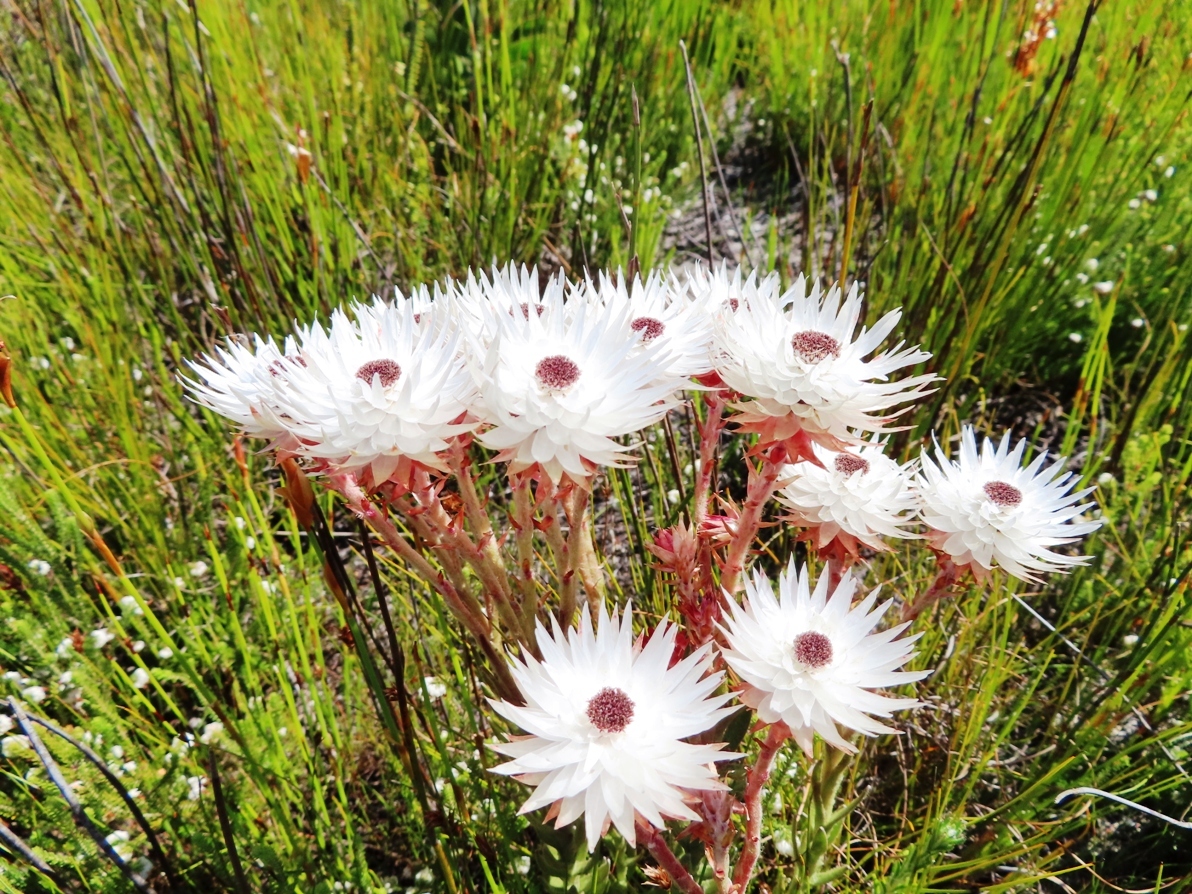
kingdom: Plantae
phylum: Tracheophyta
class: Magnoliopsida
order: Asterales
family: Asteraceae
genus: Syncarpha
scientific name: Syncarpha zeyheri
